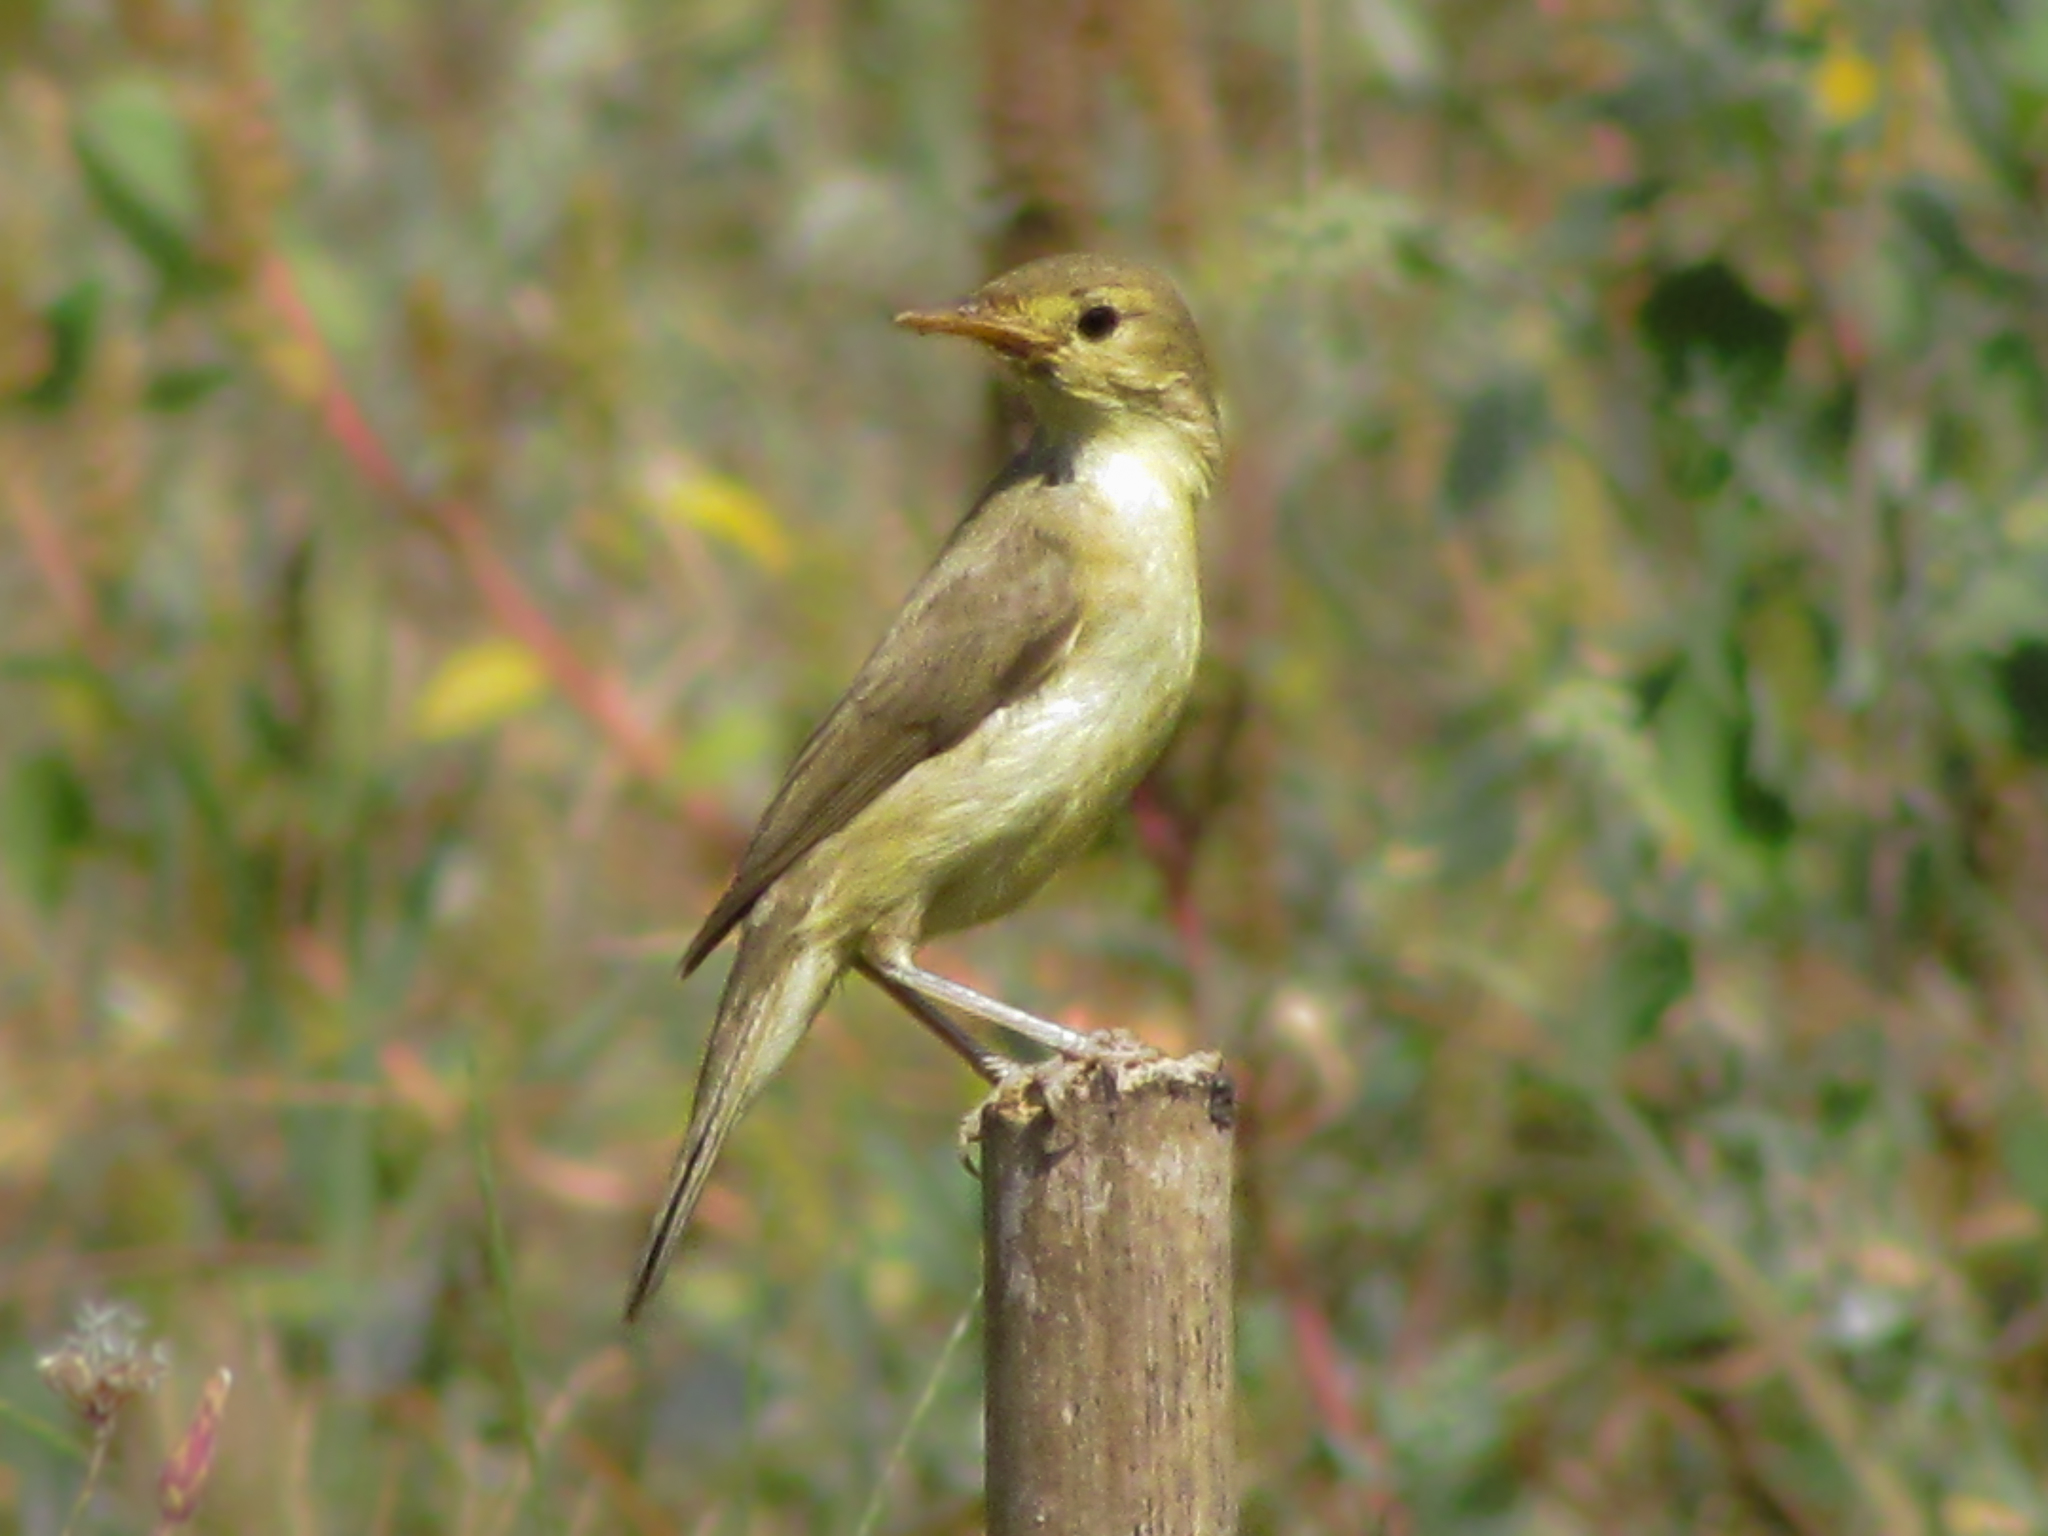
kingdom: Animalia
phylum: Chordata
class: Aves
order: Passeriformes
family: Acrocephalidae
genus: Hippolais
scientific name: Hippolais polyglotta
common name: Melodious warbler
